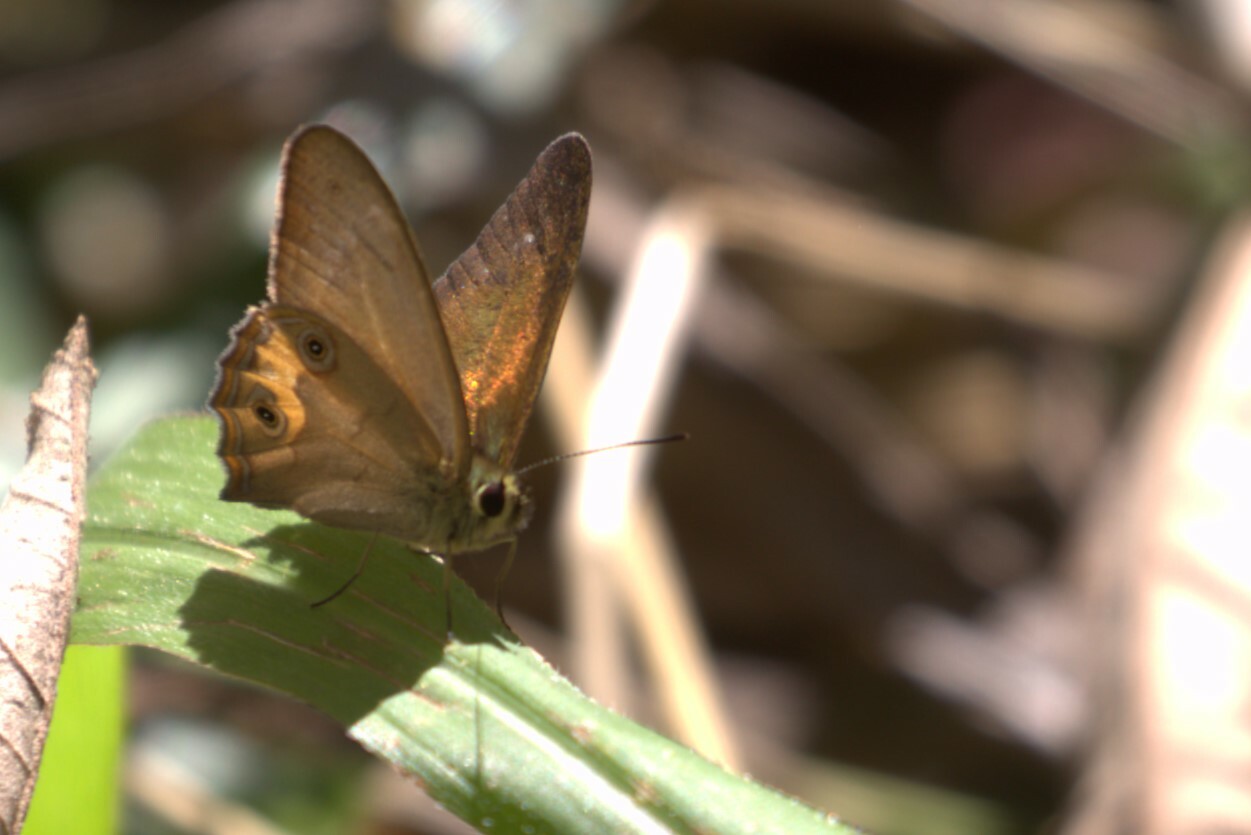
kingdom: Animalia
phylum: Arthropoda
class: Insecta
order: Lepidoptera
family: Nymphalidae
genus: Hypocysta
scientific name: Hypocysta metirius
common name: Brown ringlet
